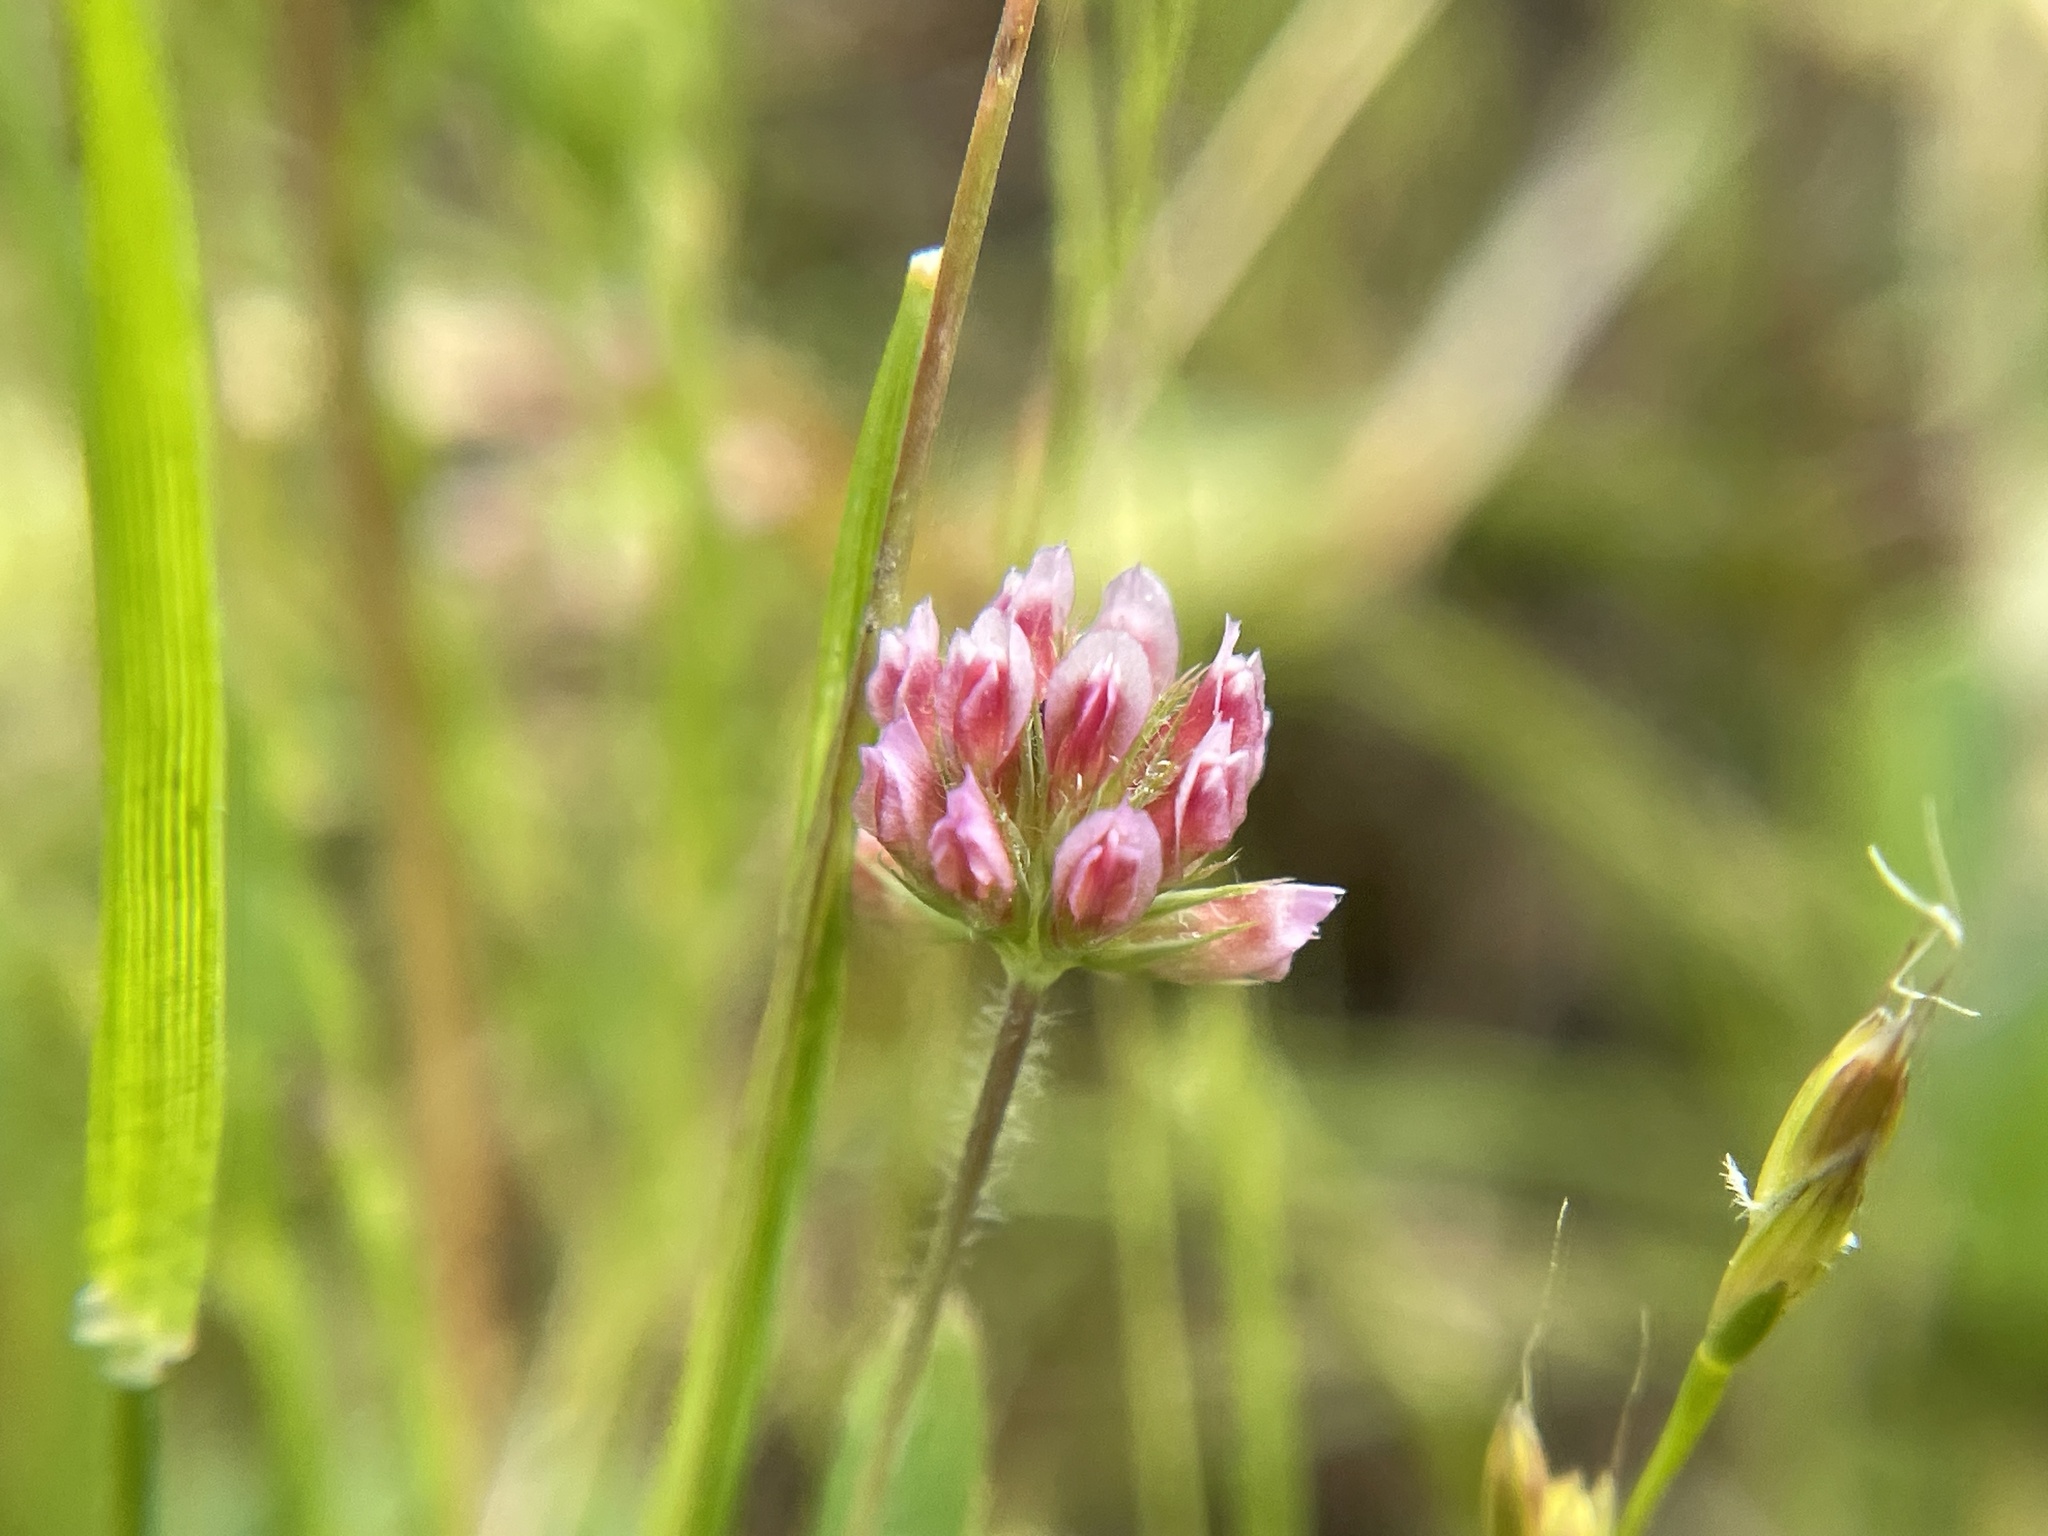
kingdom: Plantae
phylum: Tracheophyta
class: Magnoliopsida
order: Fabales
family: Fabaceae
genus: Trifolium
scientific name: Trifolium bifidum
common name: Notch-leaf clover
